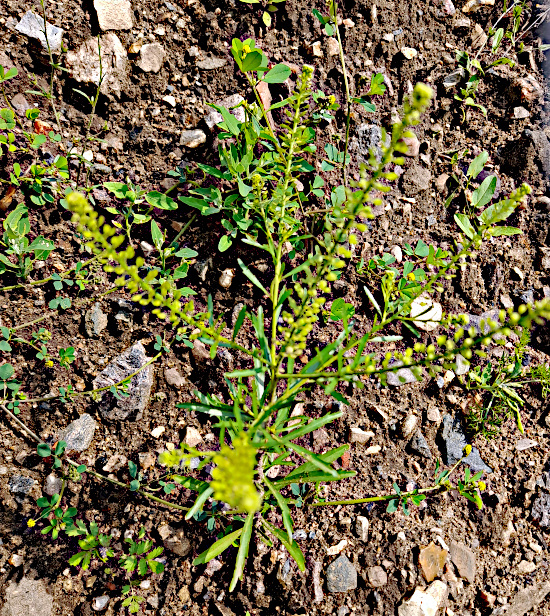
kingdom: Plantae
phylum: Tracheophyta
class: Magnoliopsida
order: Brassicales
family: Brassicaceae
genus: Lepidium
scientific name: Lepidium densiflorum
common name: Miner's pepperwort
